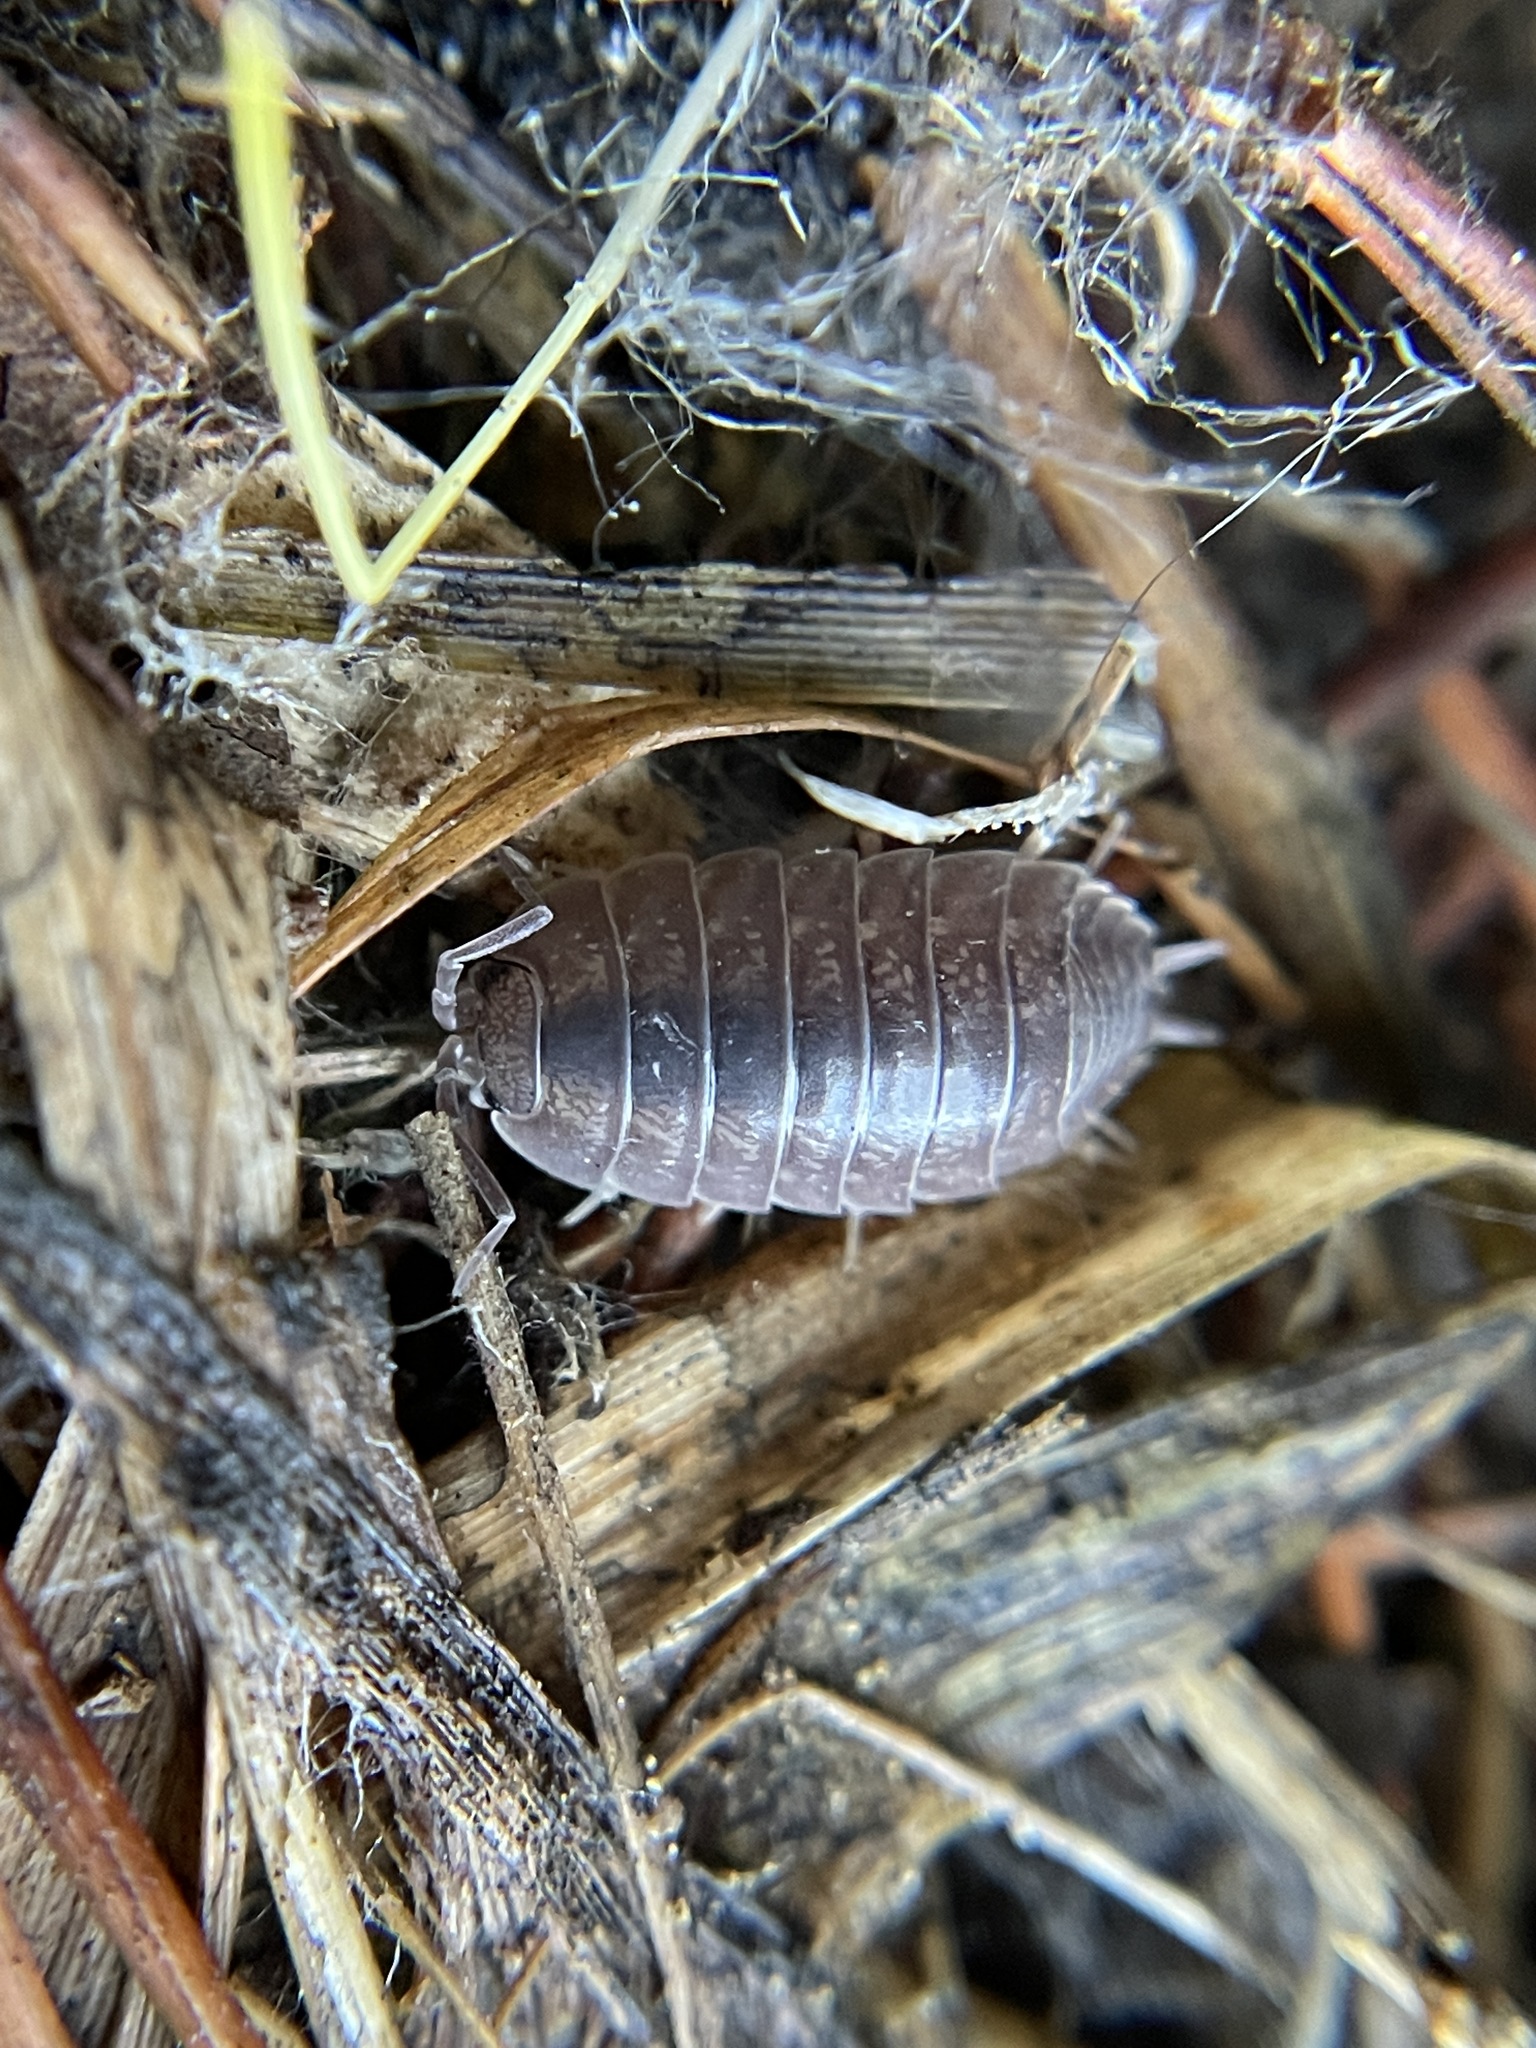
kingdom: Animalia
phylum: Arthropoda
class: Malacostraca
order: Isopoda
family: Porcellionidae
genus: Porcellio
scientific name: Porcellio laevis
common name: Swift woodlouse
